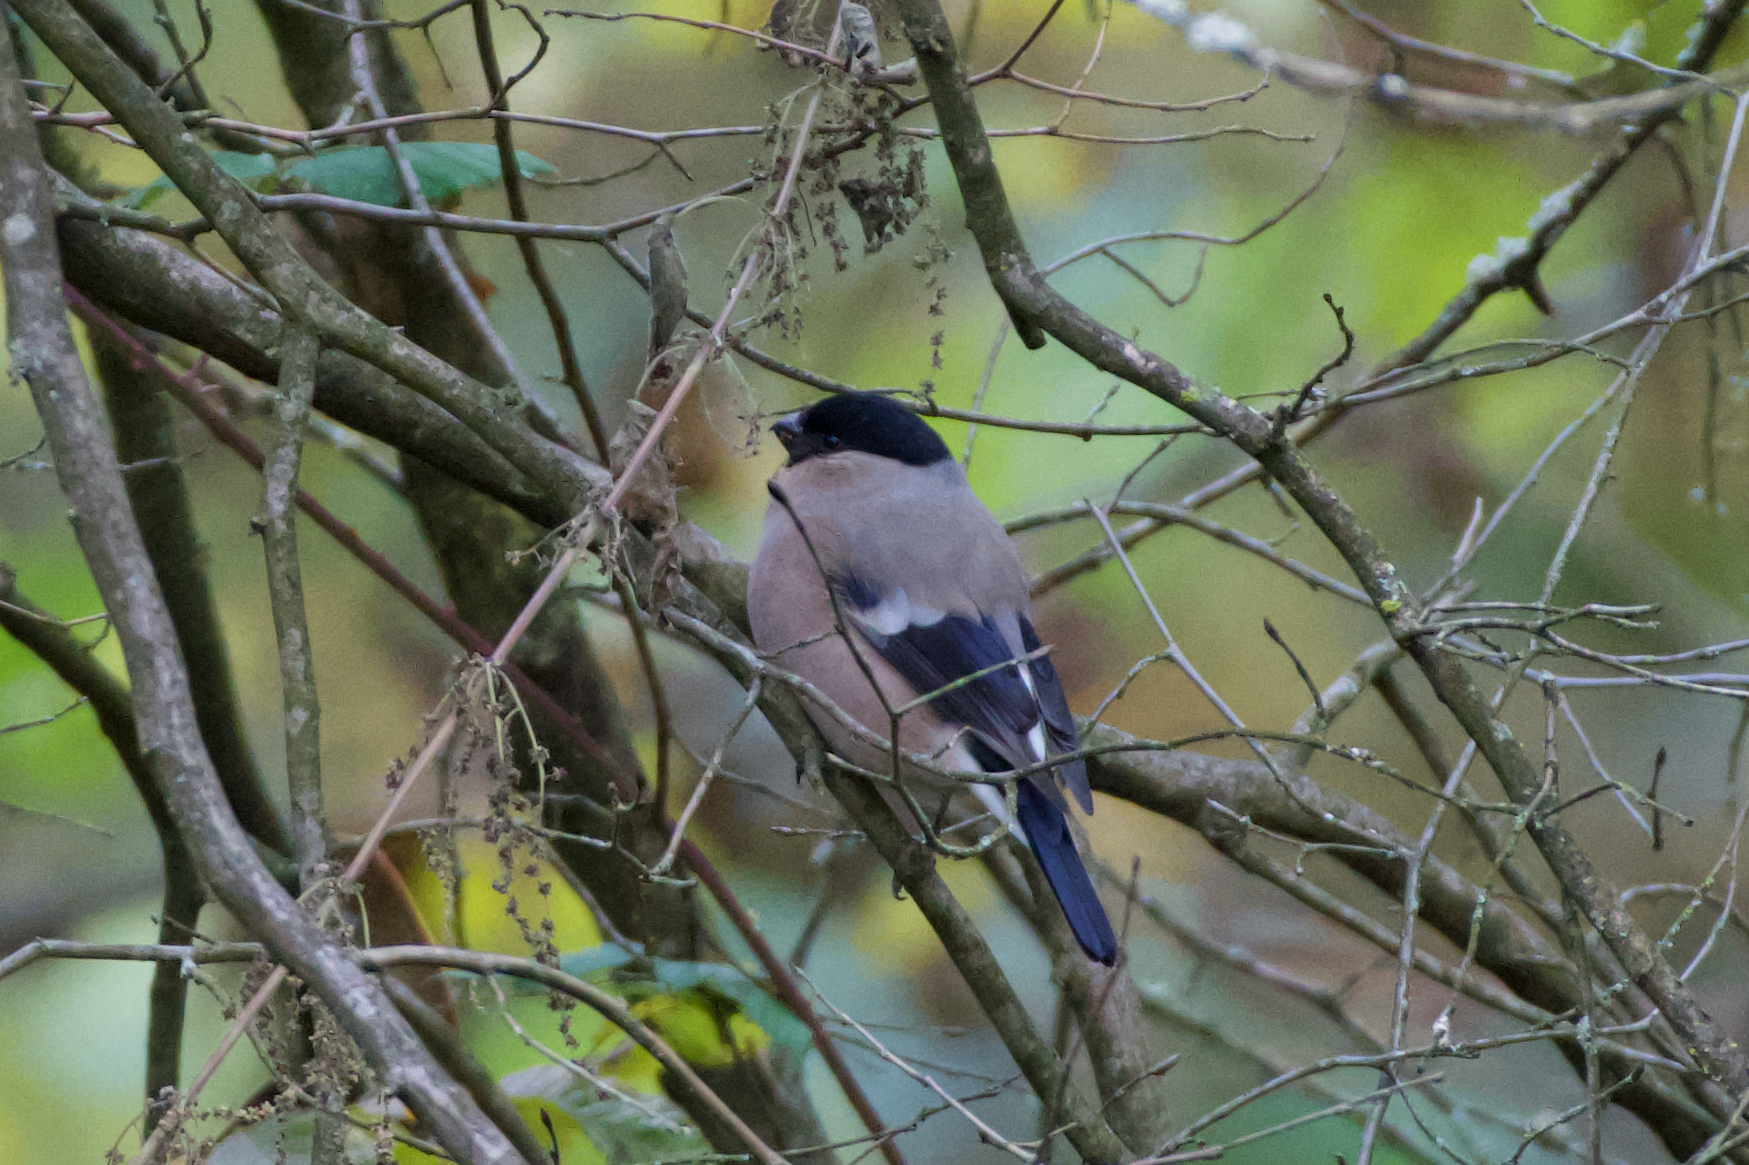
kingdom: Animalia
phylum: Chordata
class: Aves
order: Passeriformes
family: Fringillidae
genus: Pyrrhula
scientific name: Pyrrhula pyrrhula
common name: Eurasian bullfinch
